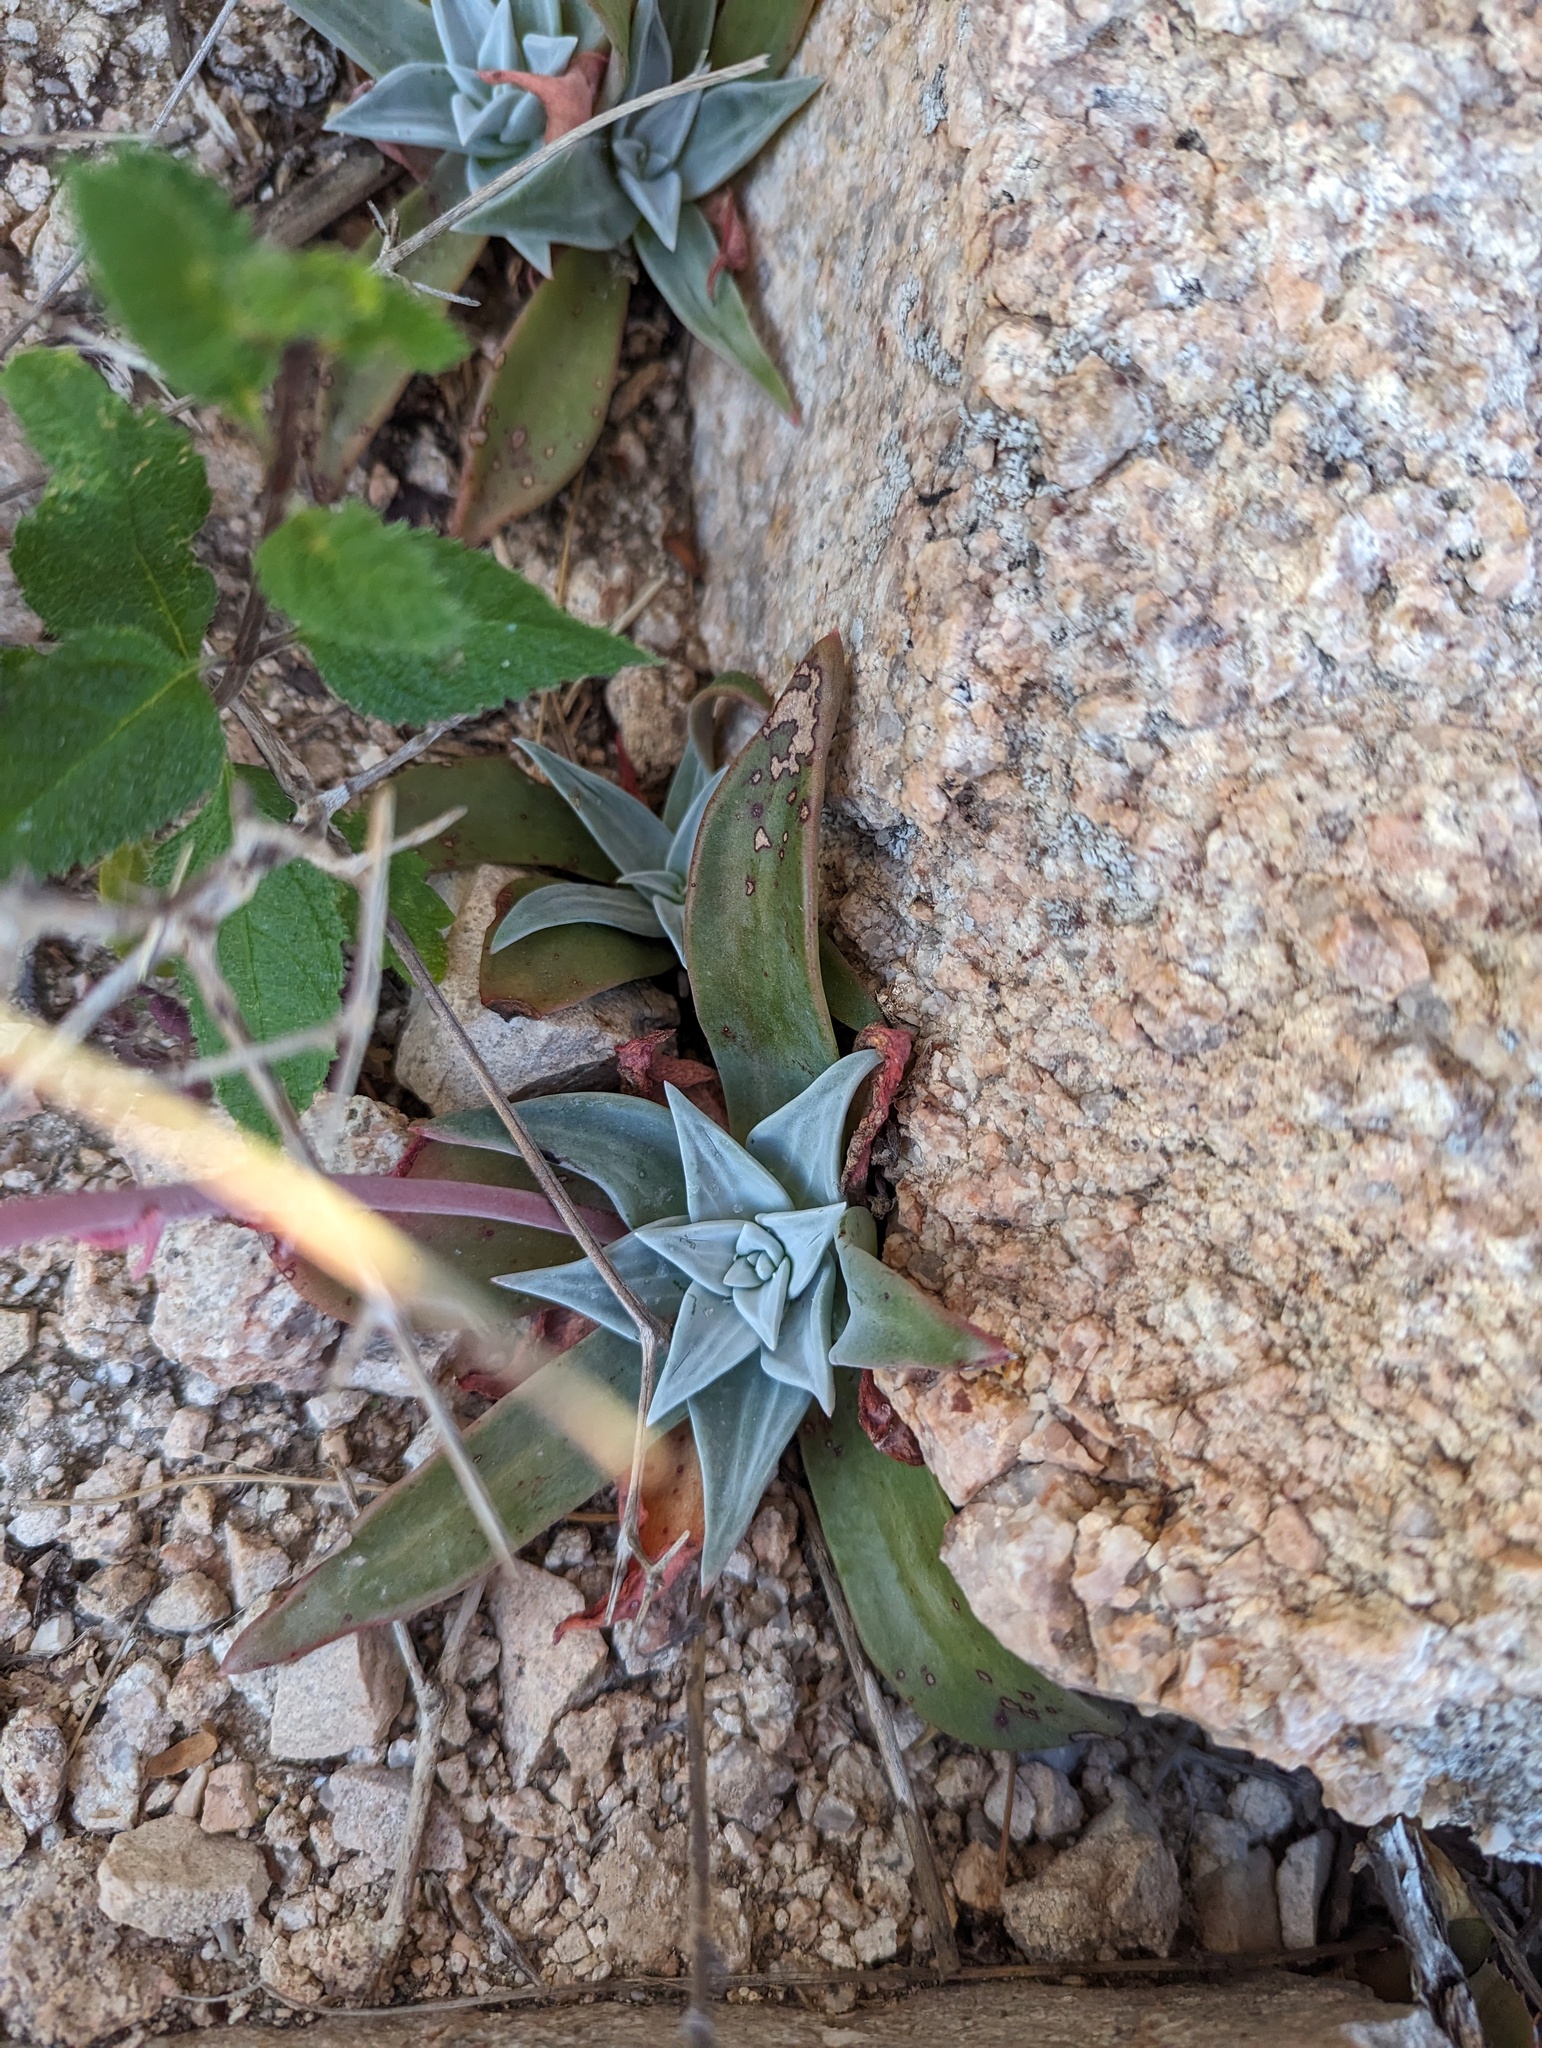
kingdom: Plantae
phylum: Tracheophyta
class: Magnoliopsida
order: Saxifragales
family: Crassulaceae
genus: Dudleya
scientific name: Dudleya nubigena
